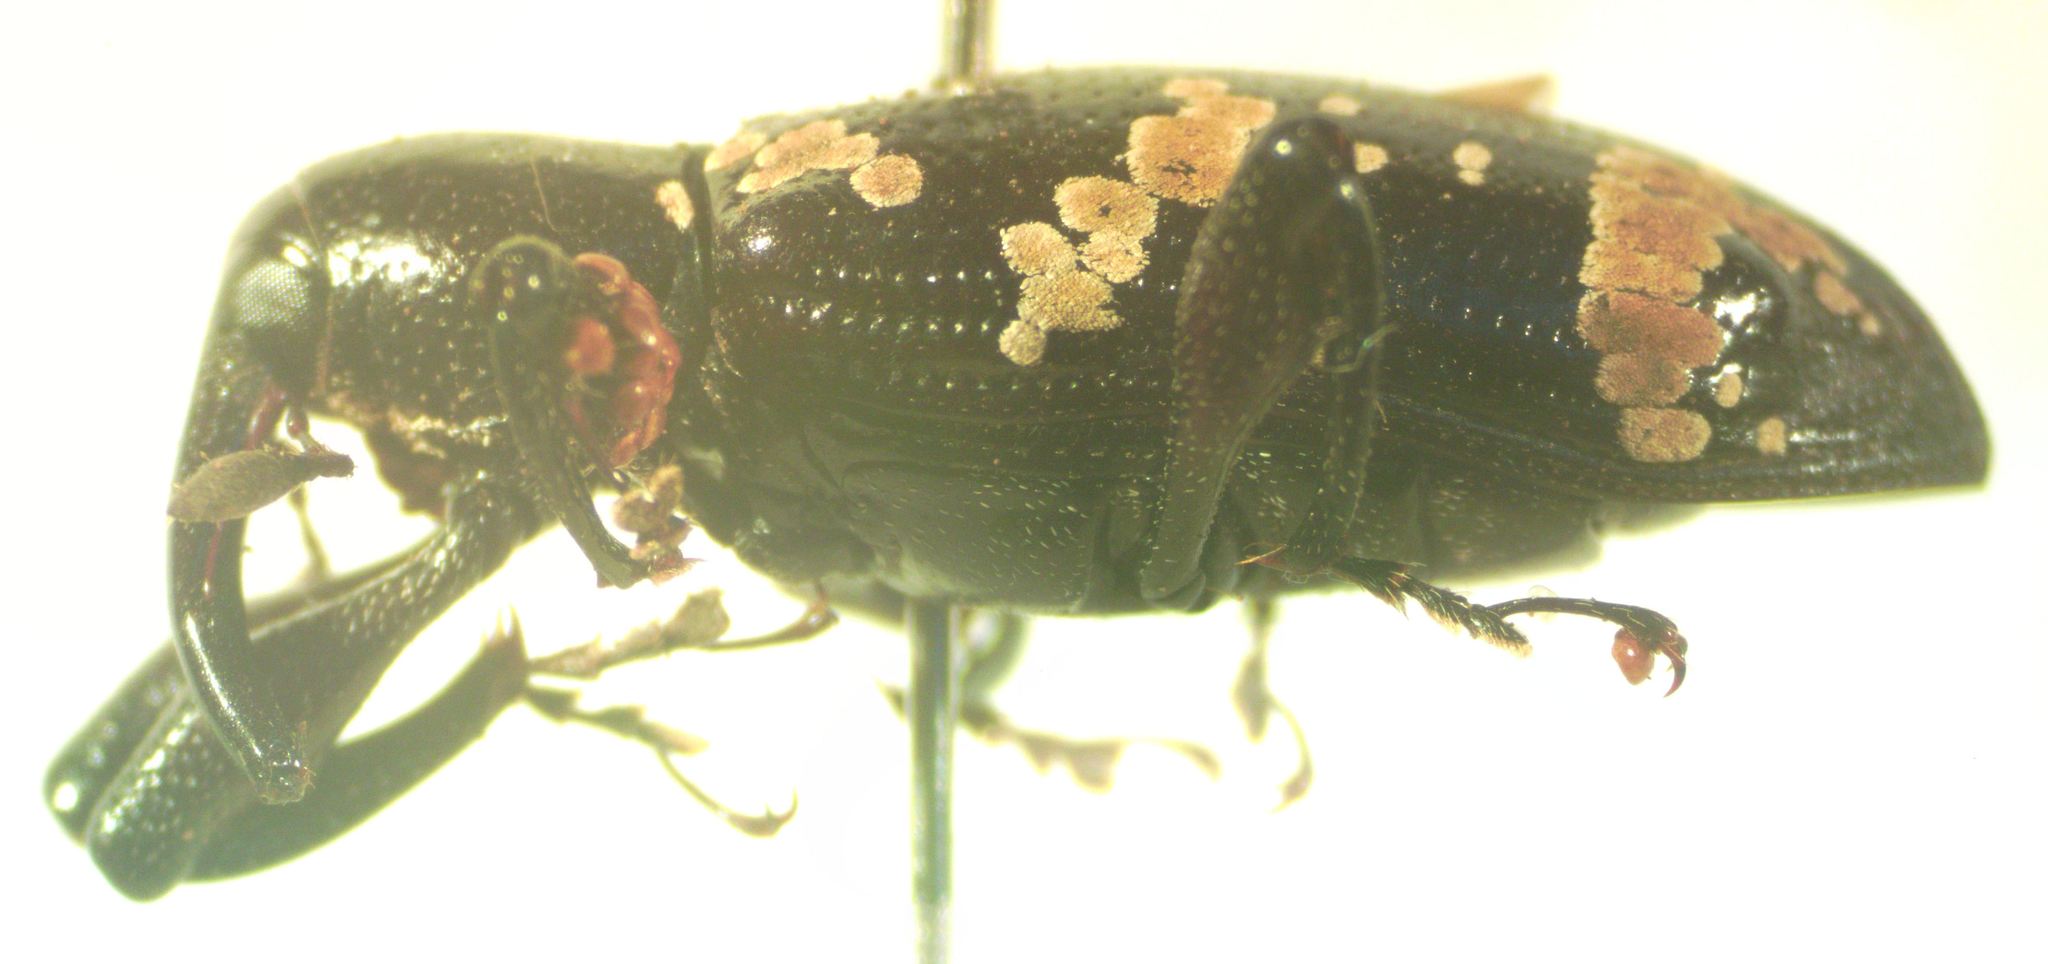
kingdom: Animalia
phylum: Arthropoda
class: Insecta
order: Coleoptera
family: Curculionidae
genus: Heilipus
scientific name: Heilipus
